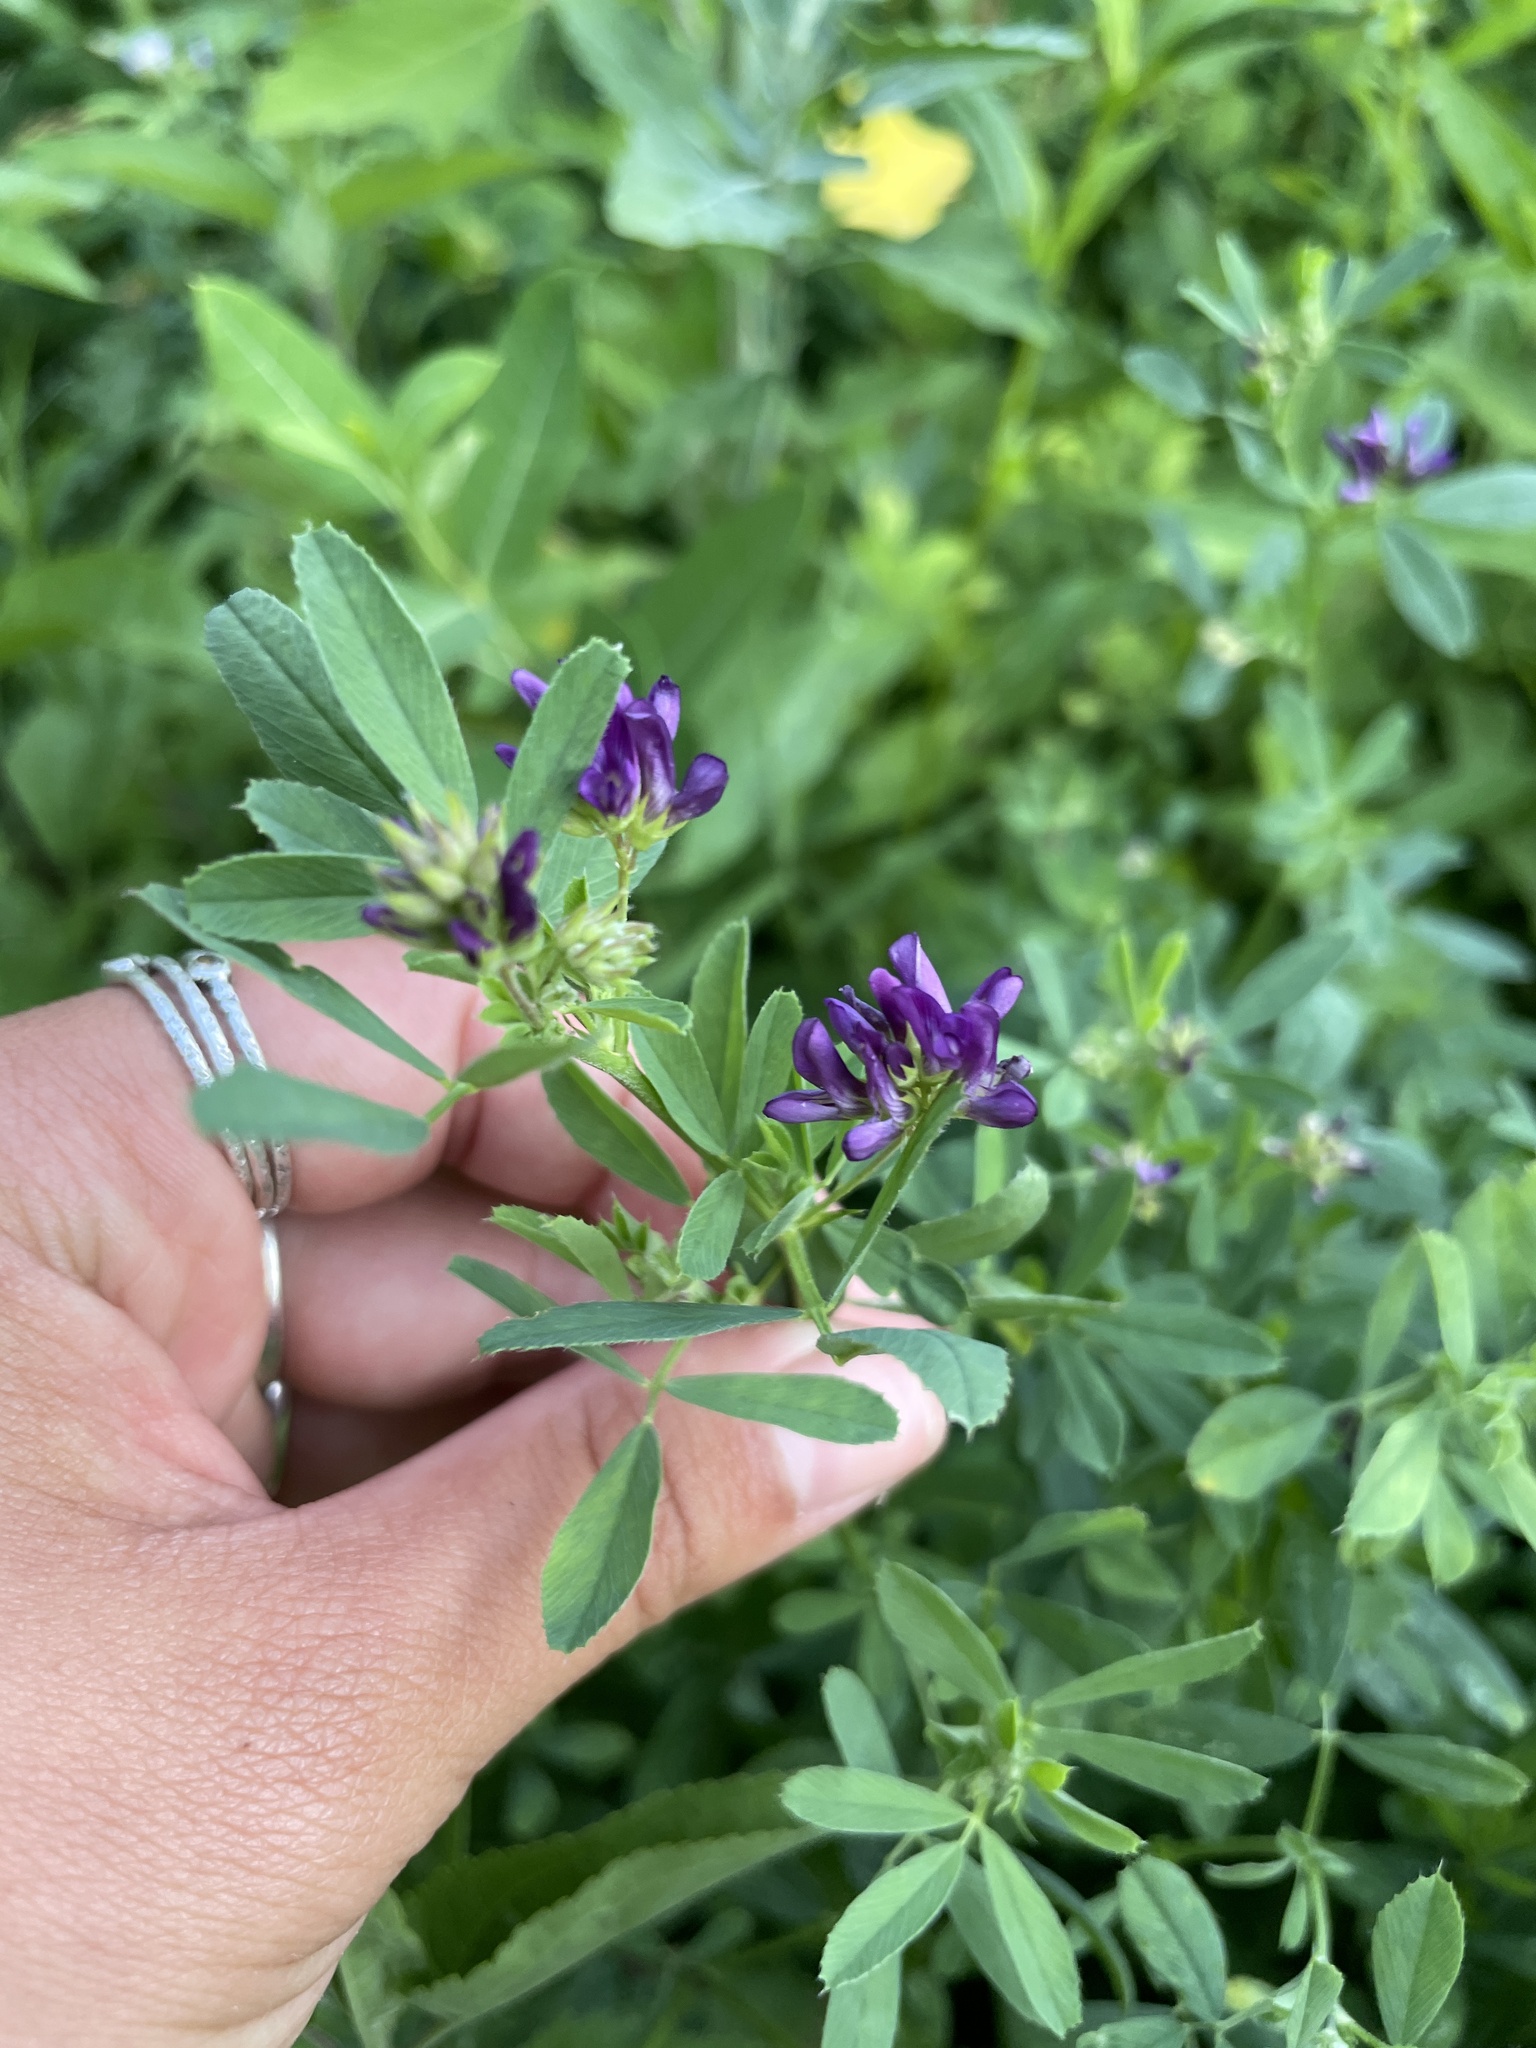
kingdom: Plantae
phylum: Tracheophyta
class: Magnoliopsida
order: Fabales
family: Fabaceae
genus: Medicago
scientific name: Medicago sativa
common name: Alfalfa
